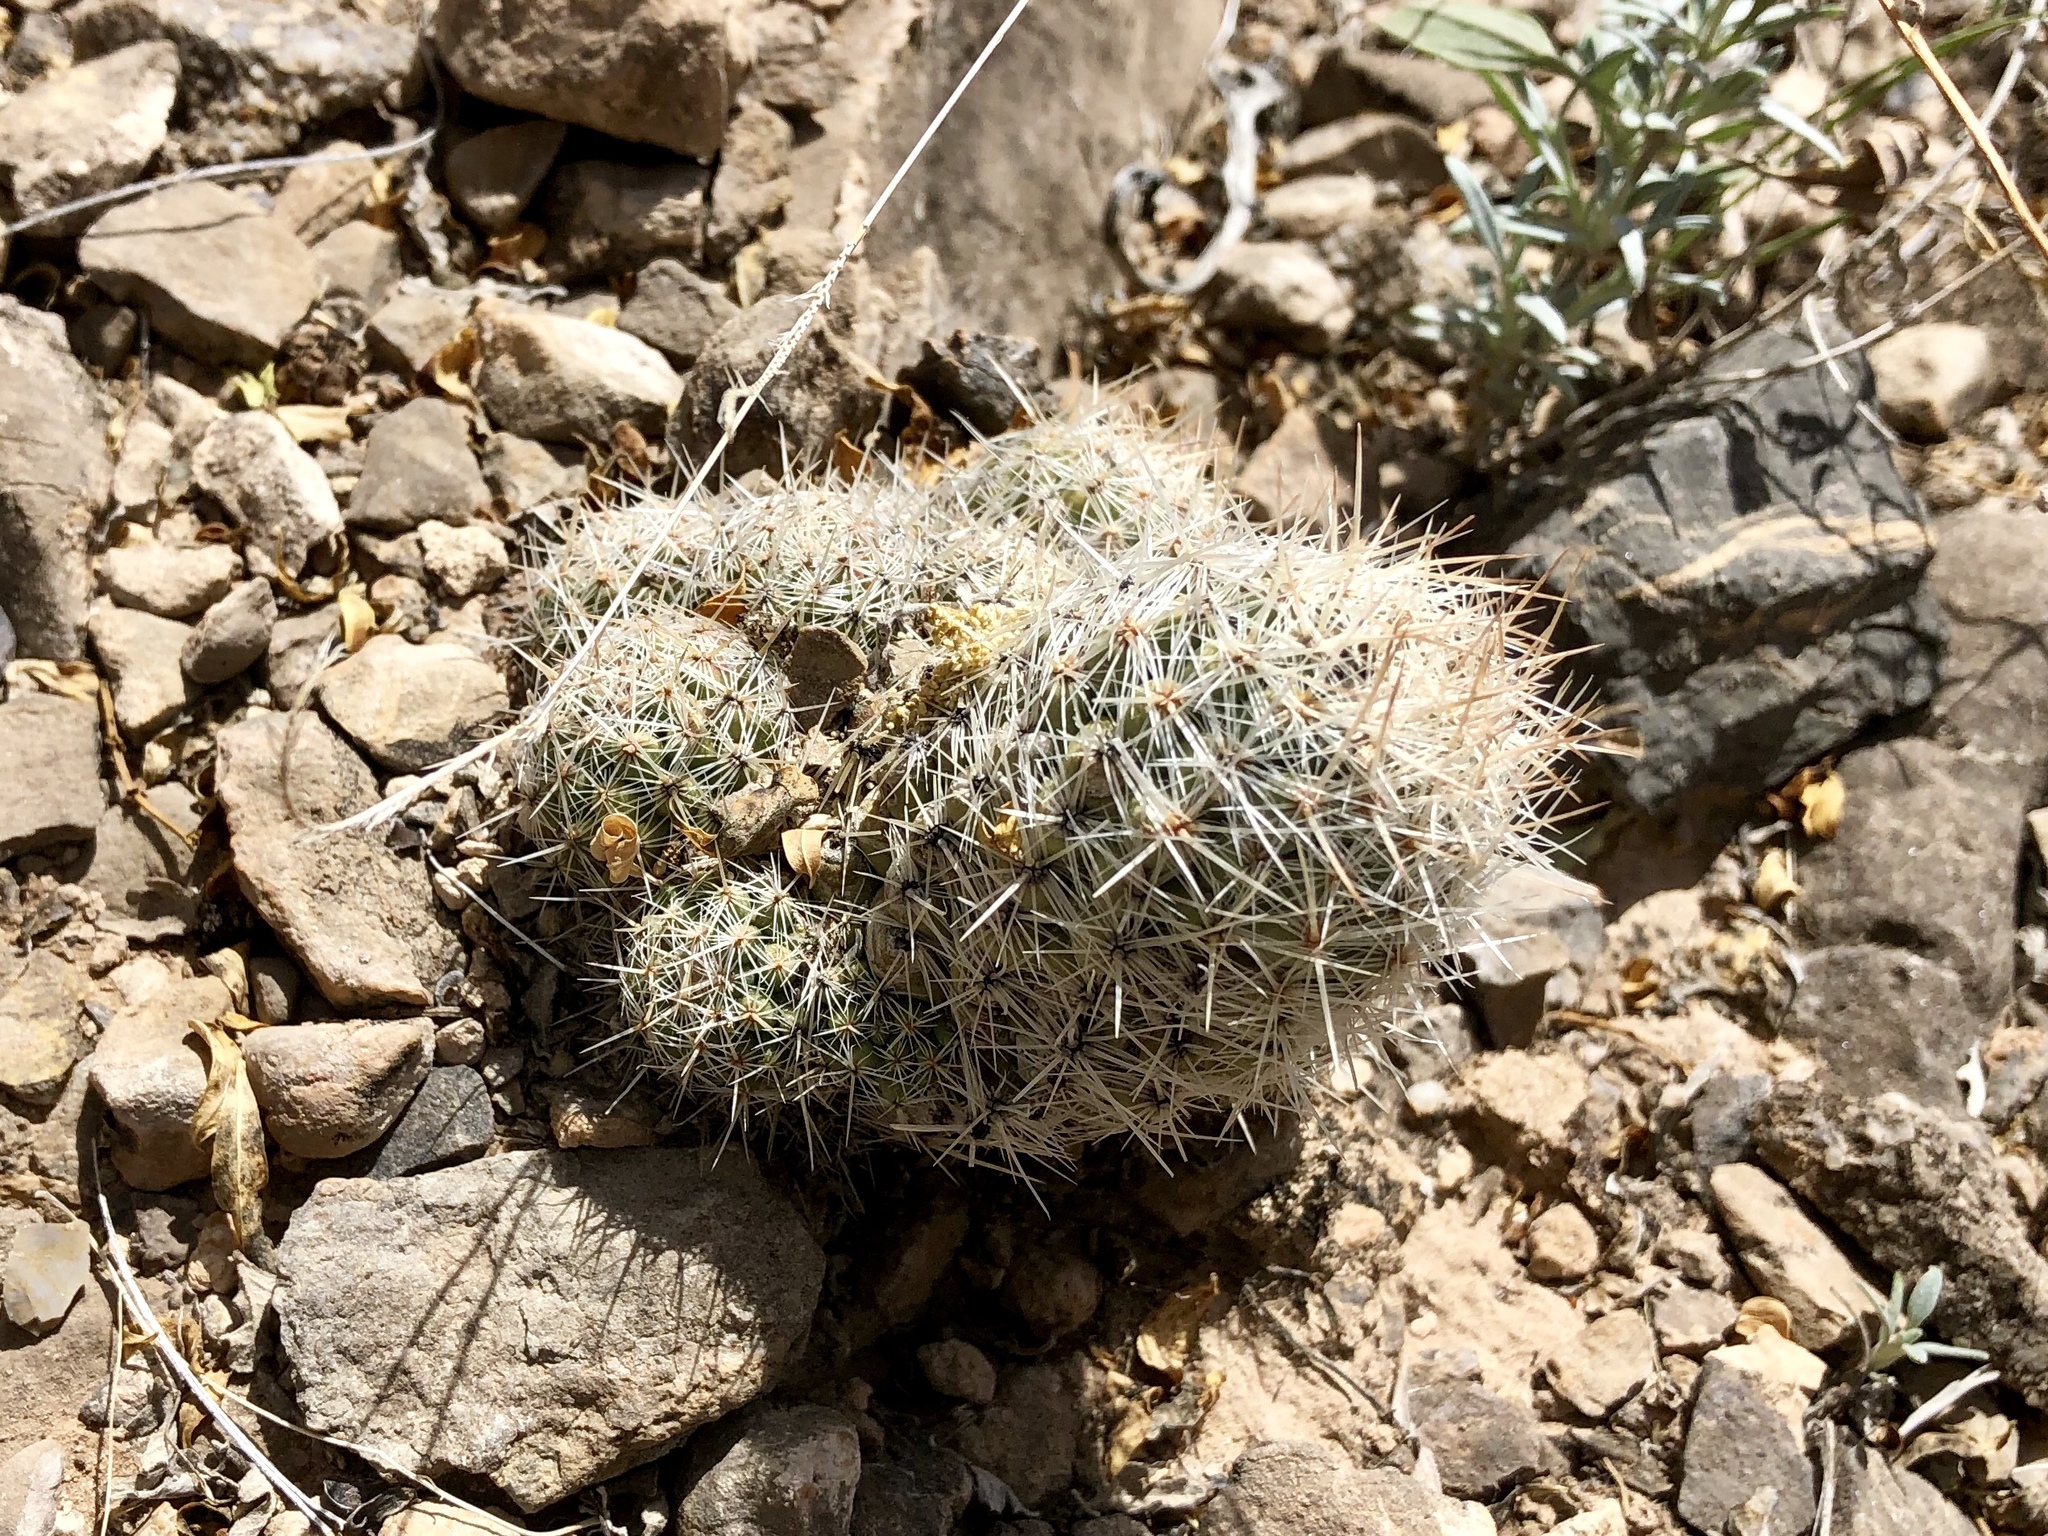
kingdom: Plantae
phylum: Tracheophyta
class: Magnoliopsida
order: Caryophyllales
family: Cactaceae
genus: Pelecyphora
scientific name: Pelecyphora tuberculosa
